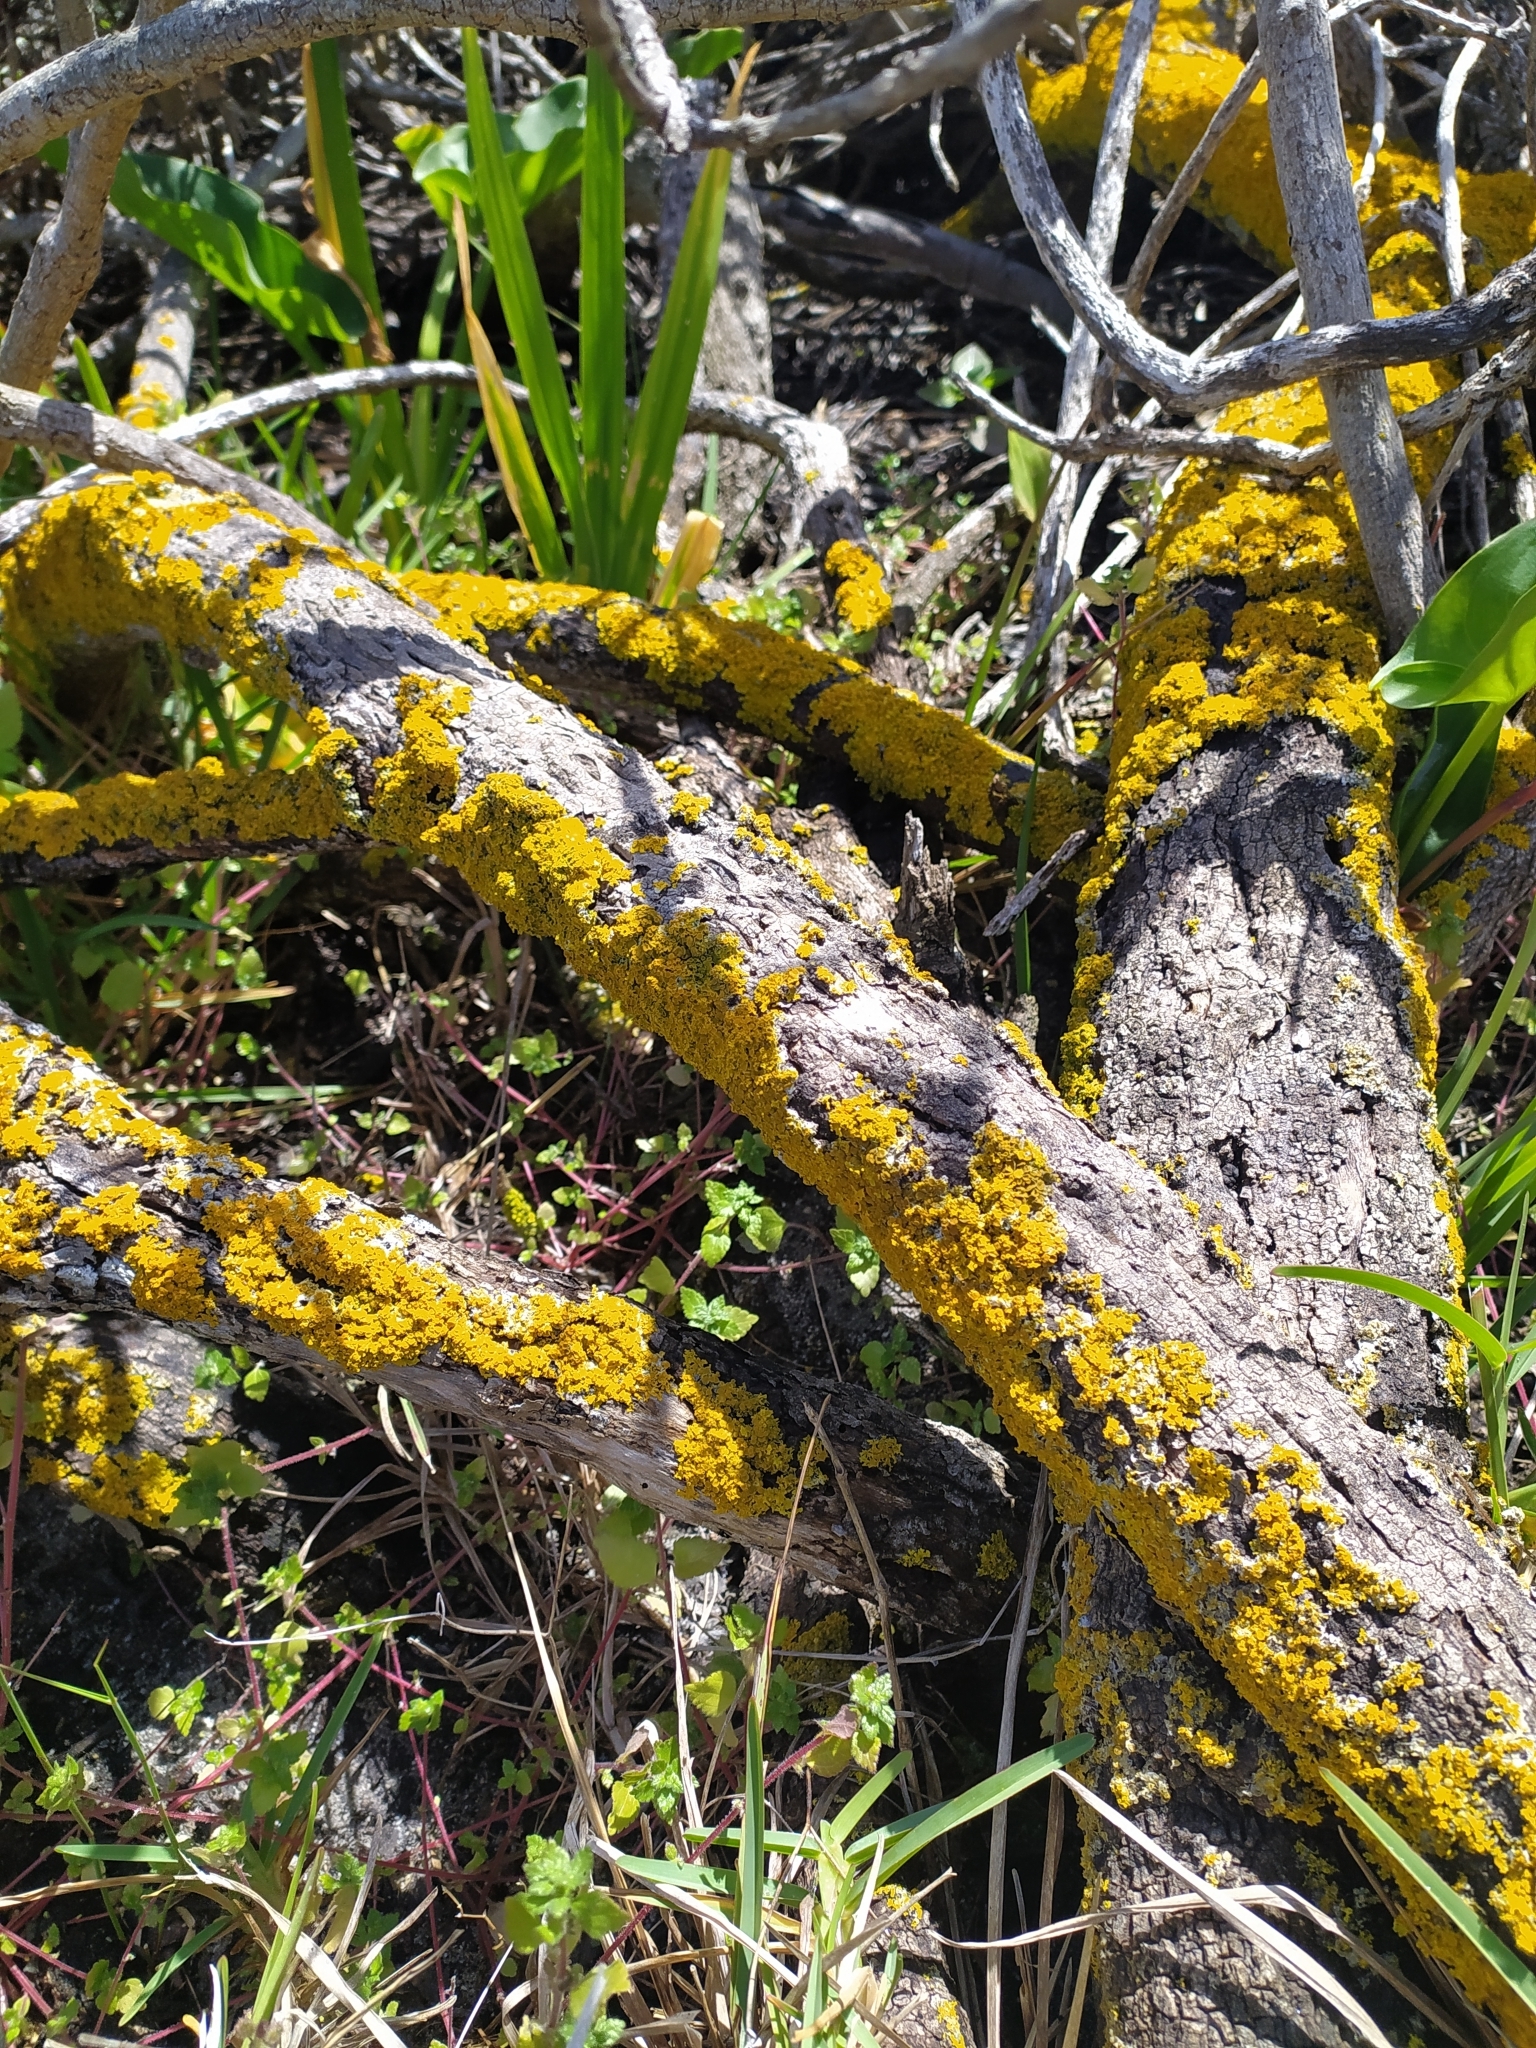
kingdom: Fungi
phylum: Ascomycota
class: Lecanoromycetes
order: Teloschistales
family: Teloschistaceae
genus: Xanthoria
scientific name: Xanthoria parietina
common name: Common orange lichen
